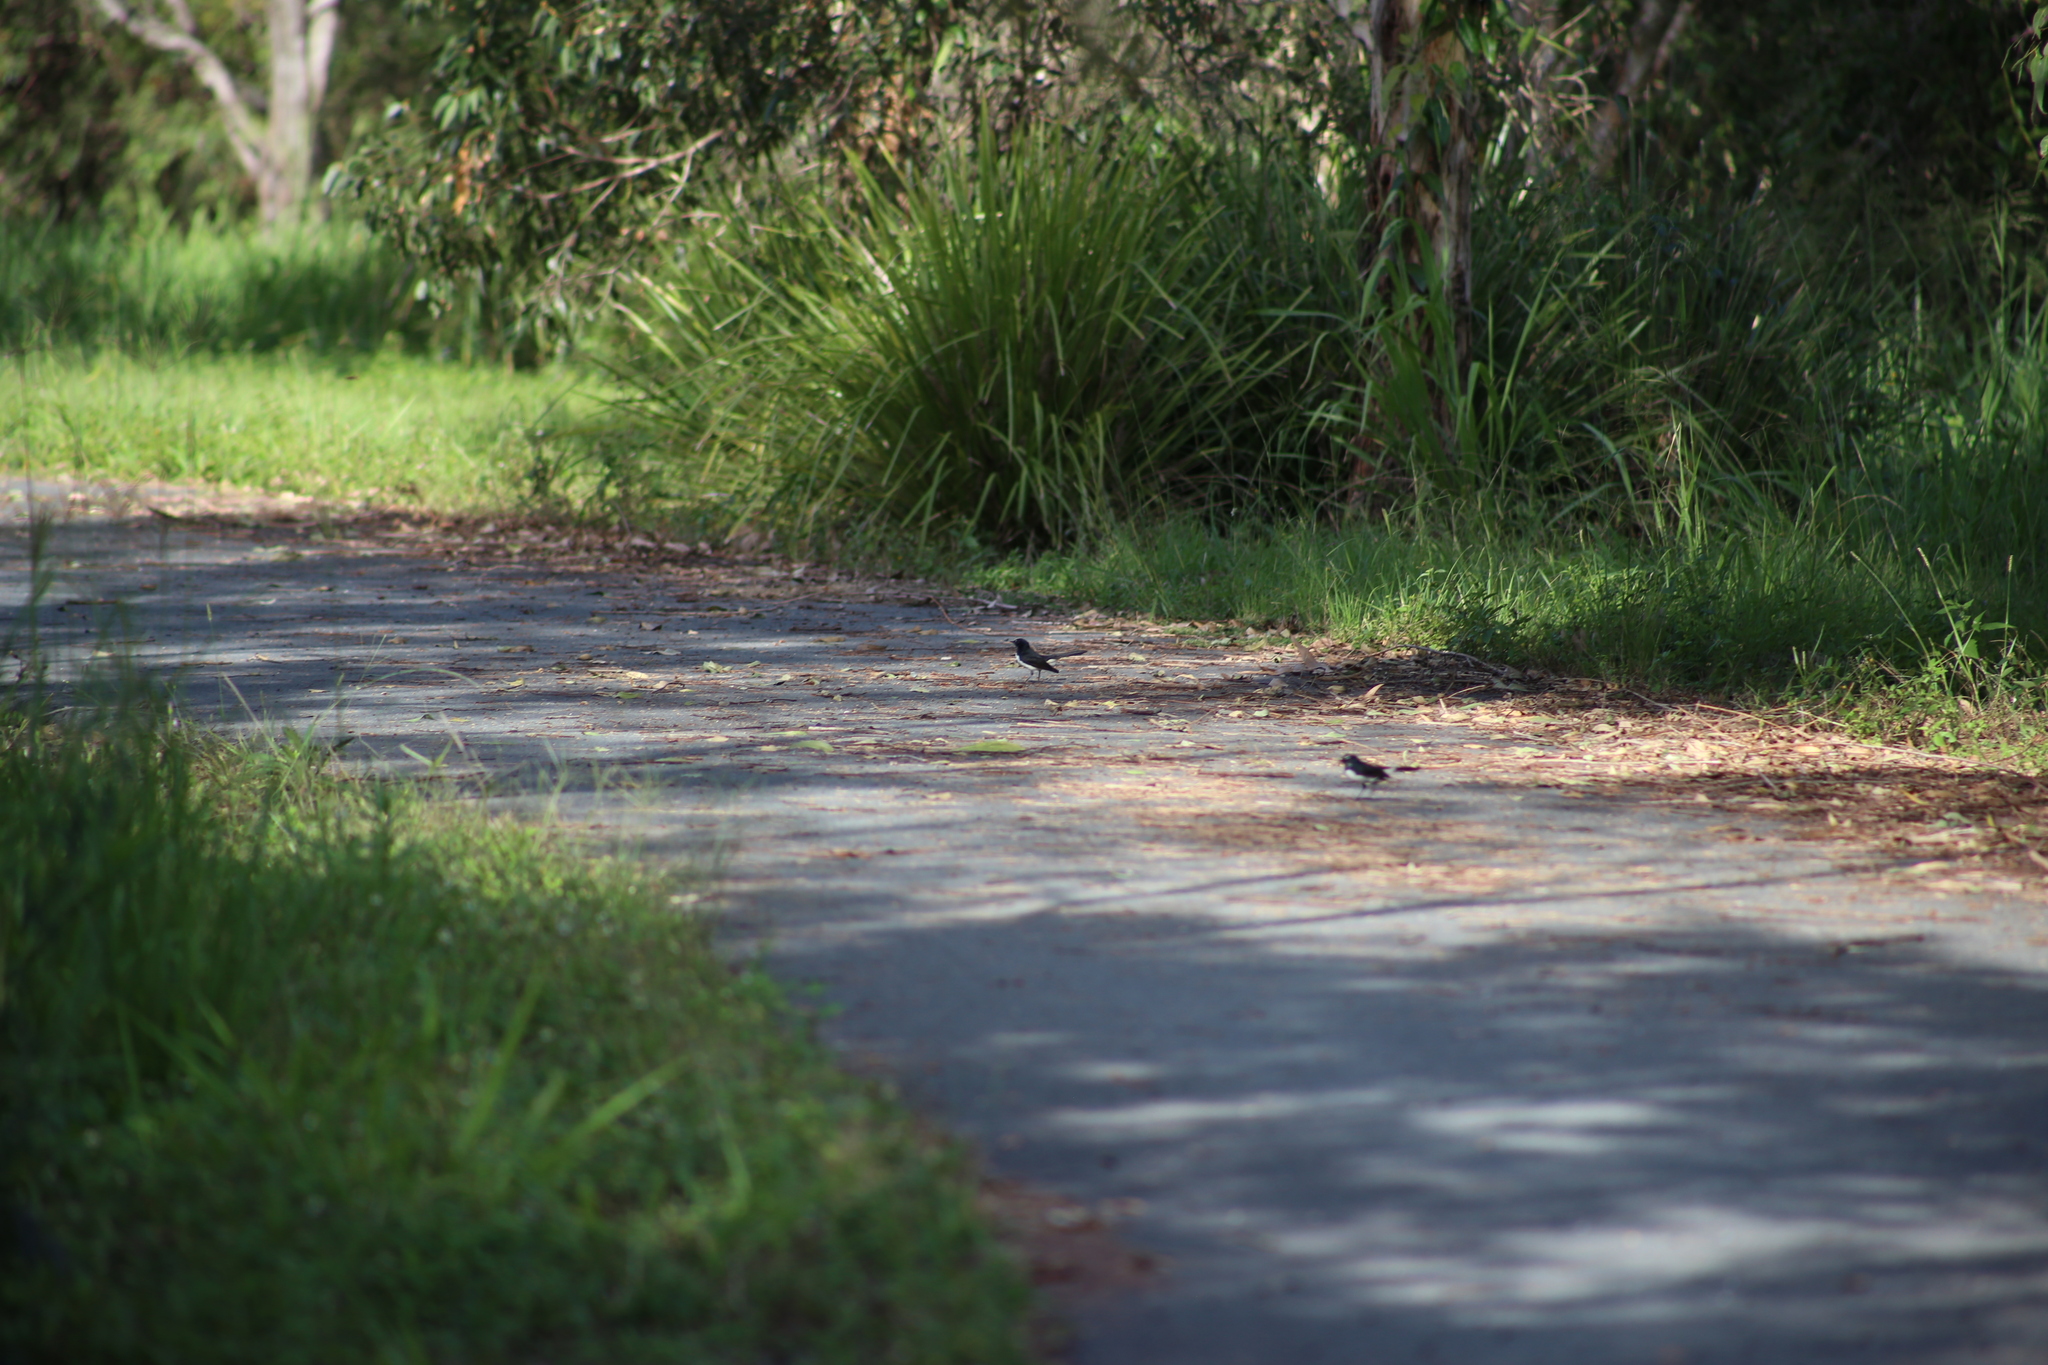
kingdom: Animalia
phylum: Chordata
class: Aves
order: Passeriformes
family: Rhipiduridae
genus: Rhipidura
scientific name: Rhipidura leucophrys
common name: Willie wagtail
